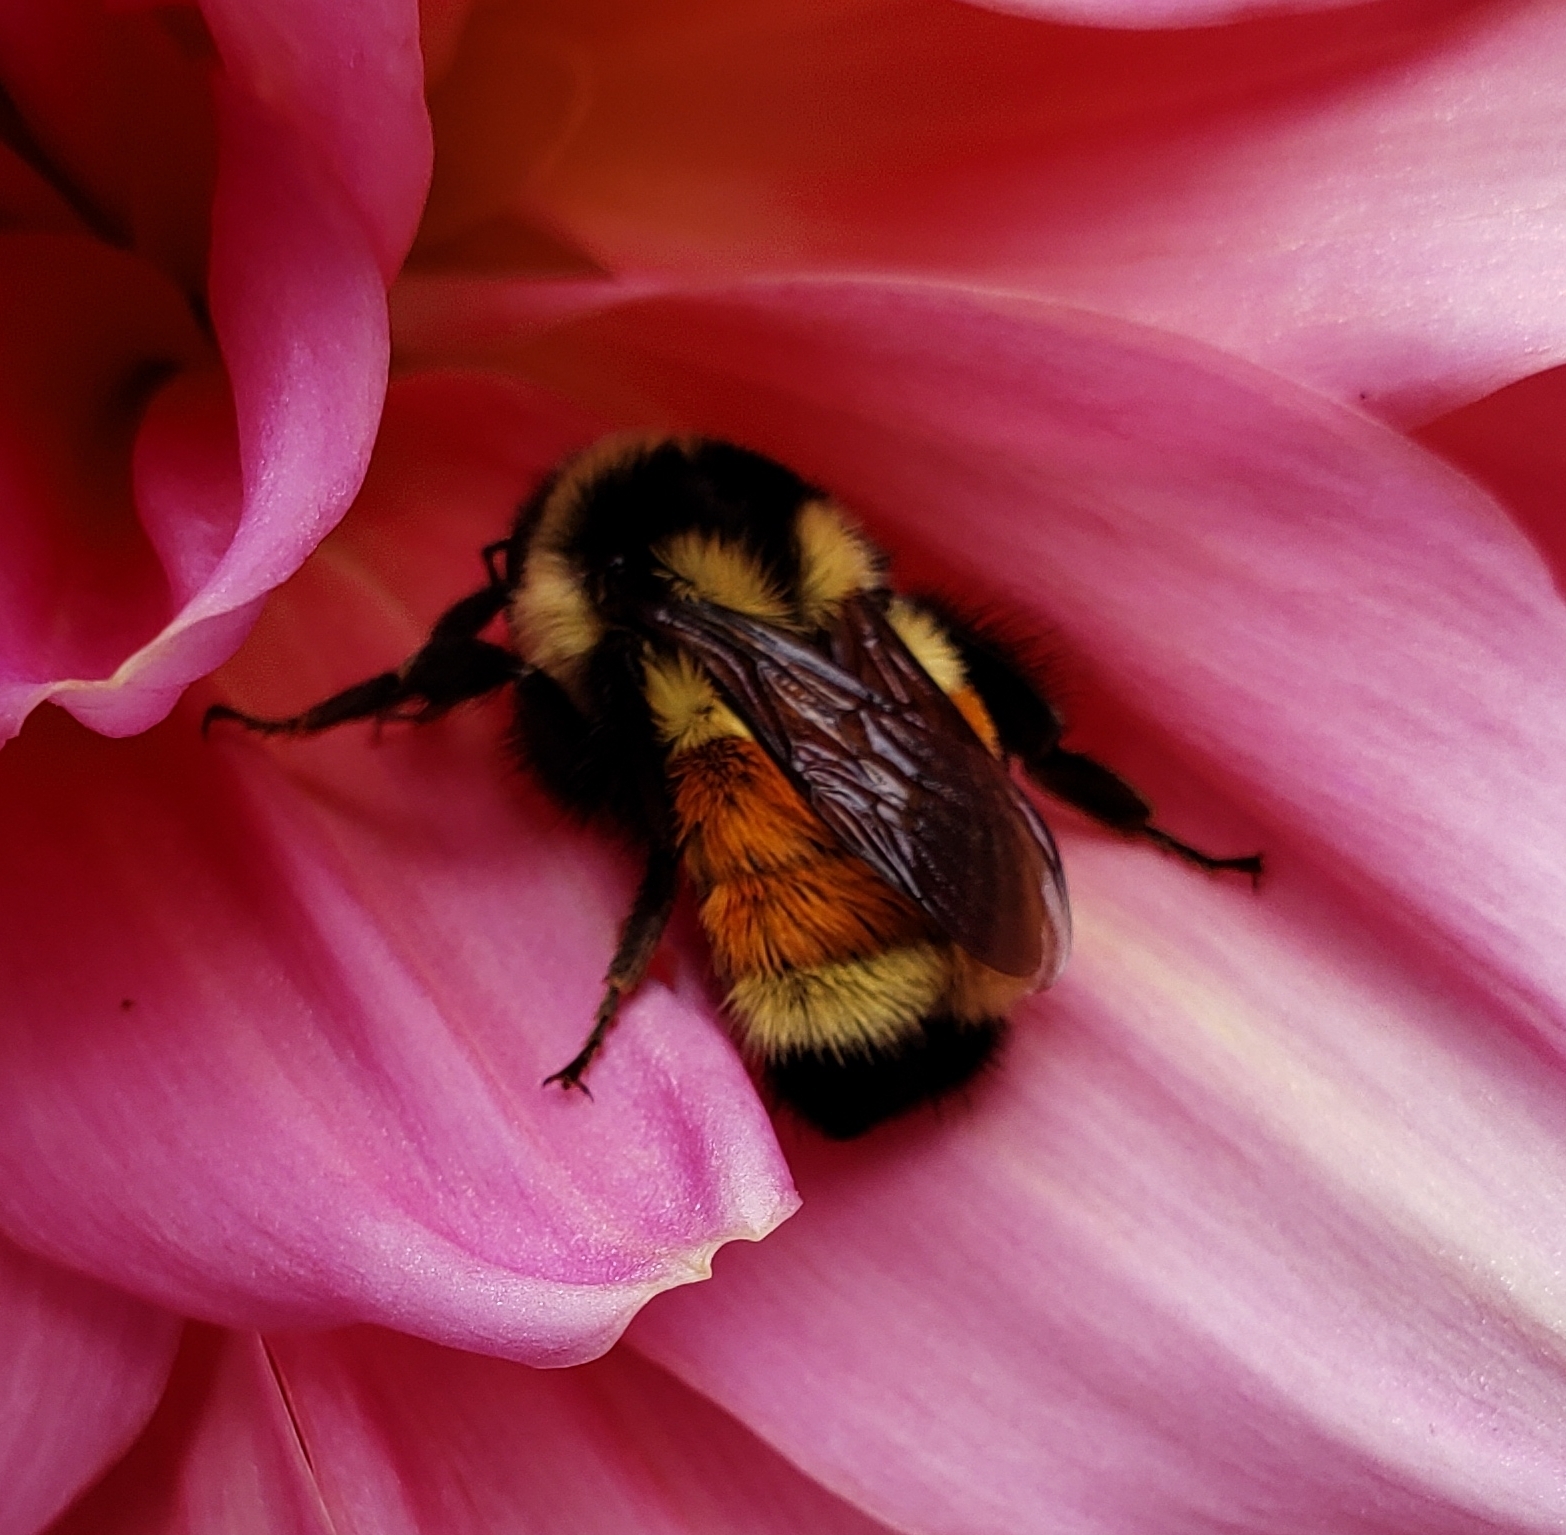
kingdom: Animalia
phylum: Arthropoda
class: Insecta
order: Hymenoptera
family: Apidae
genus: Bombus
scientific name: Bombus ternarius
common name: Tri-colored bumble bee
